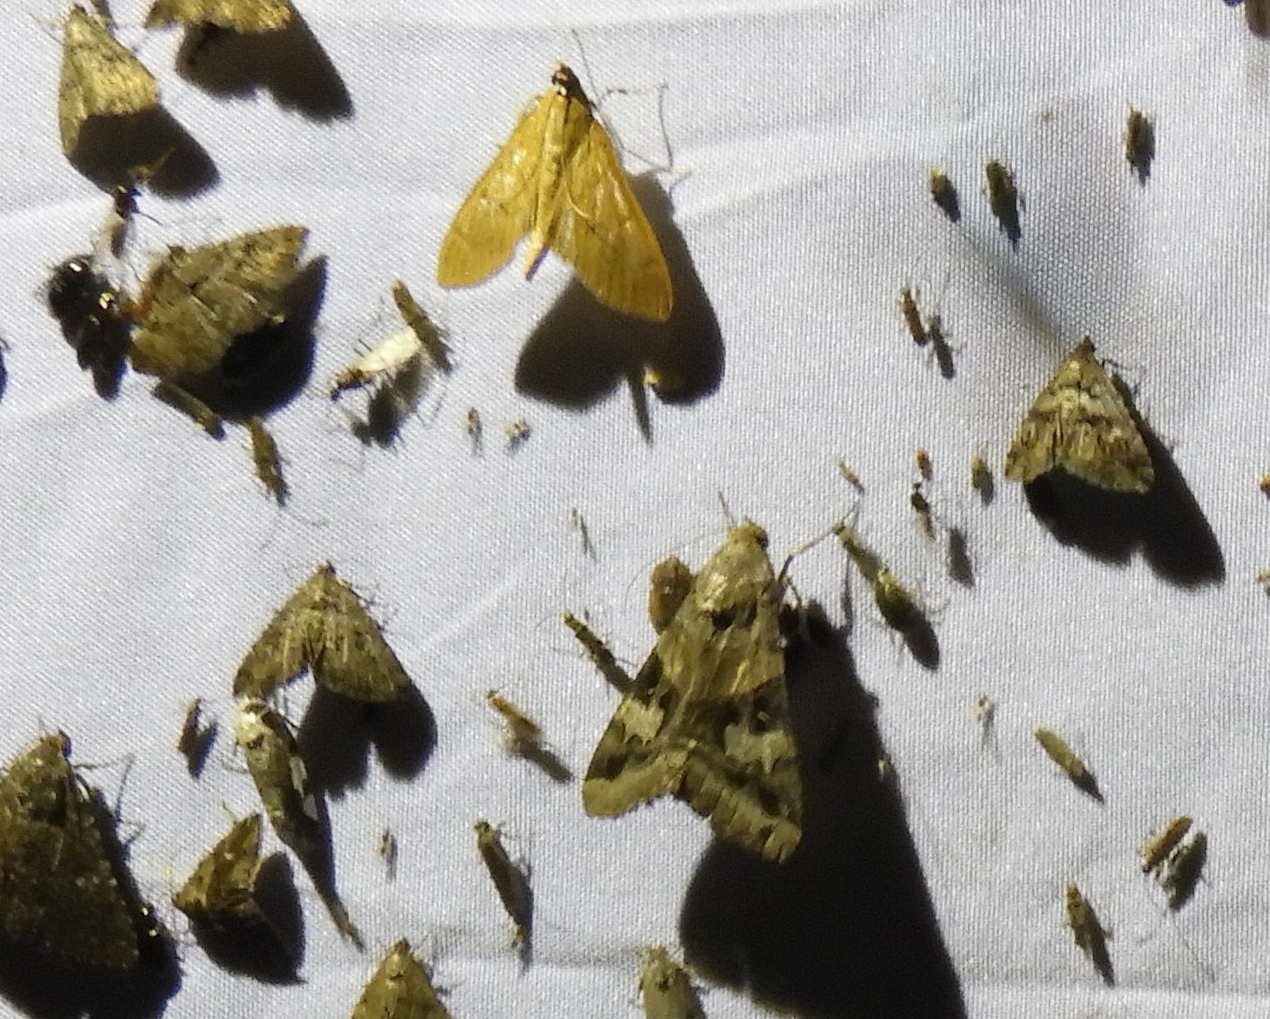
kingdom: Animalia
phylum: Arthropoda
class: Insecta
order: Lepidoptera
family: Erebidae
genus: Melipotis
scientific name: Melipotis perpendicularis
